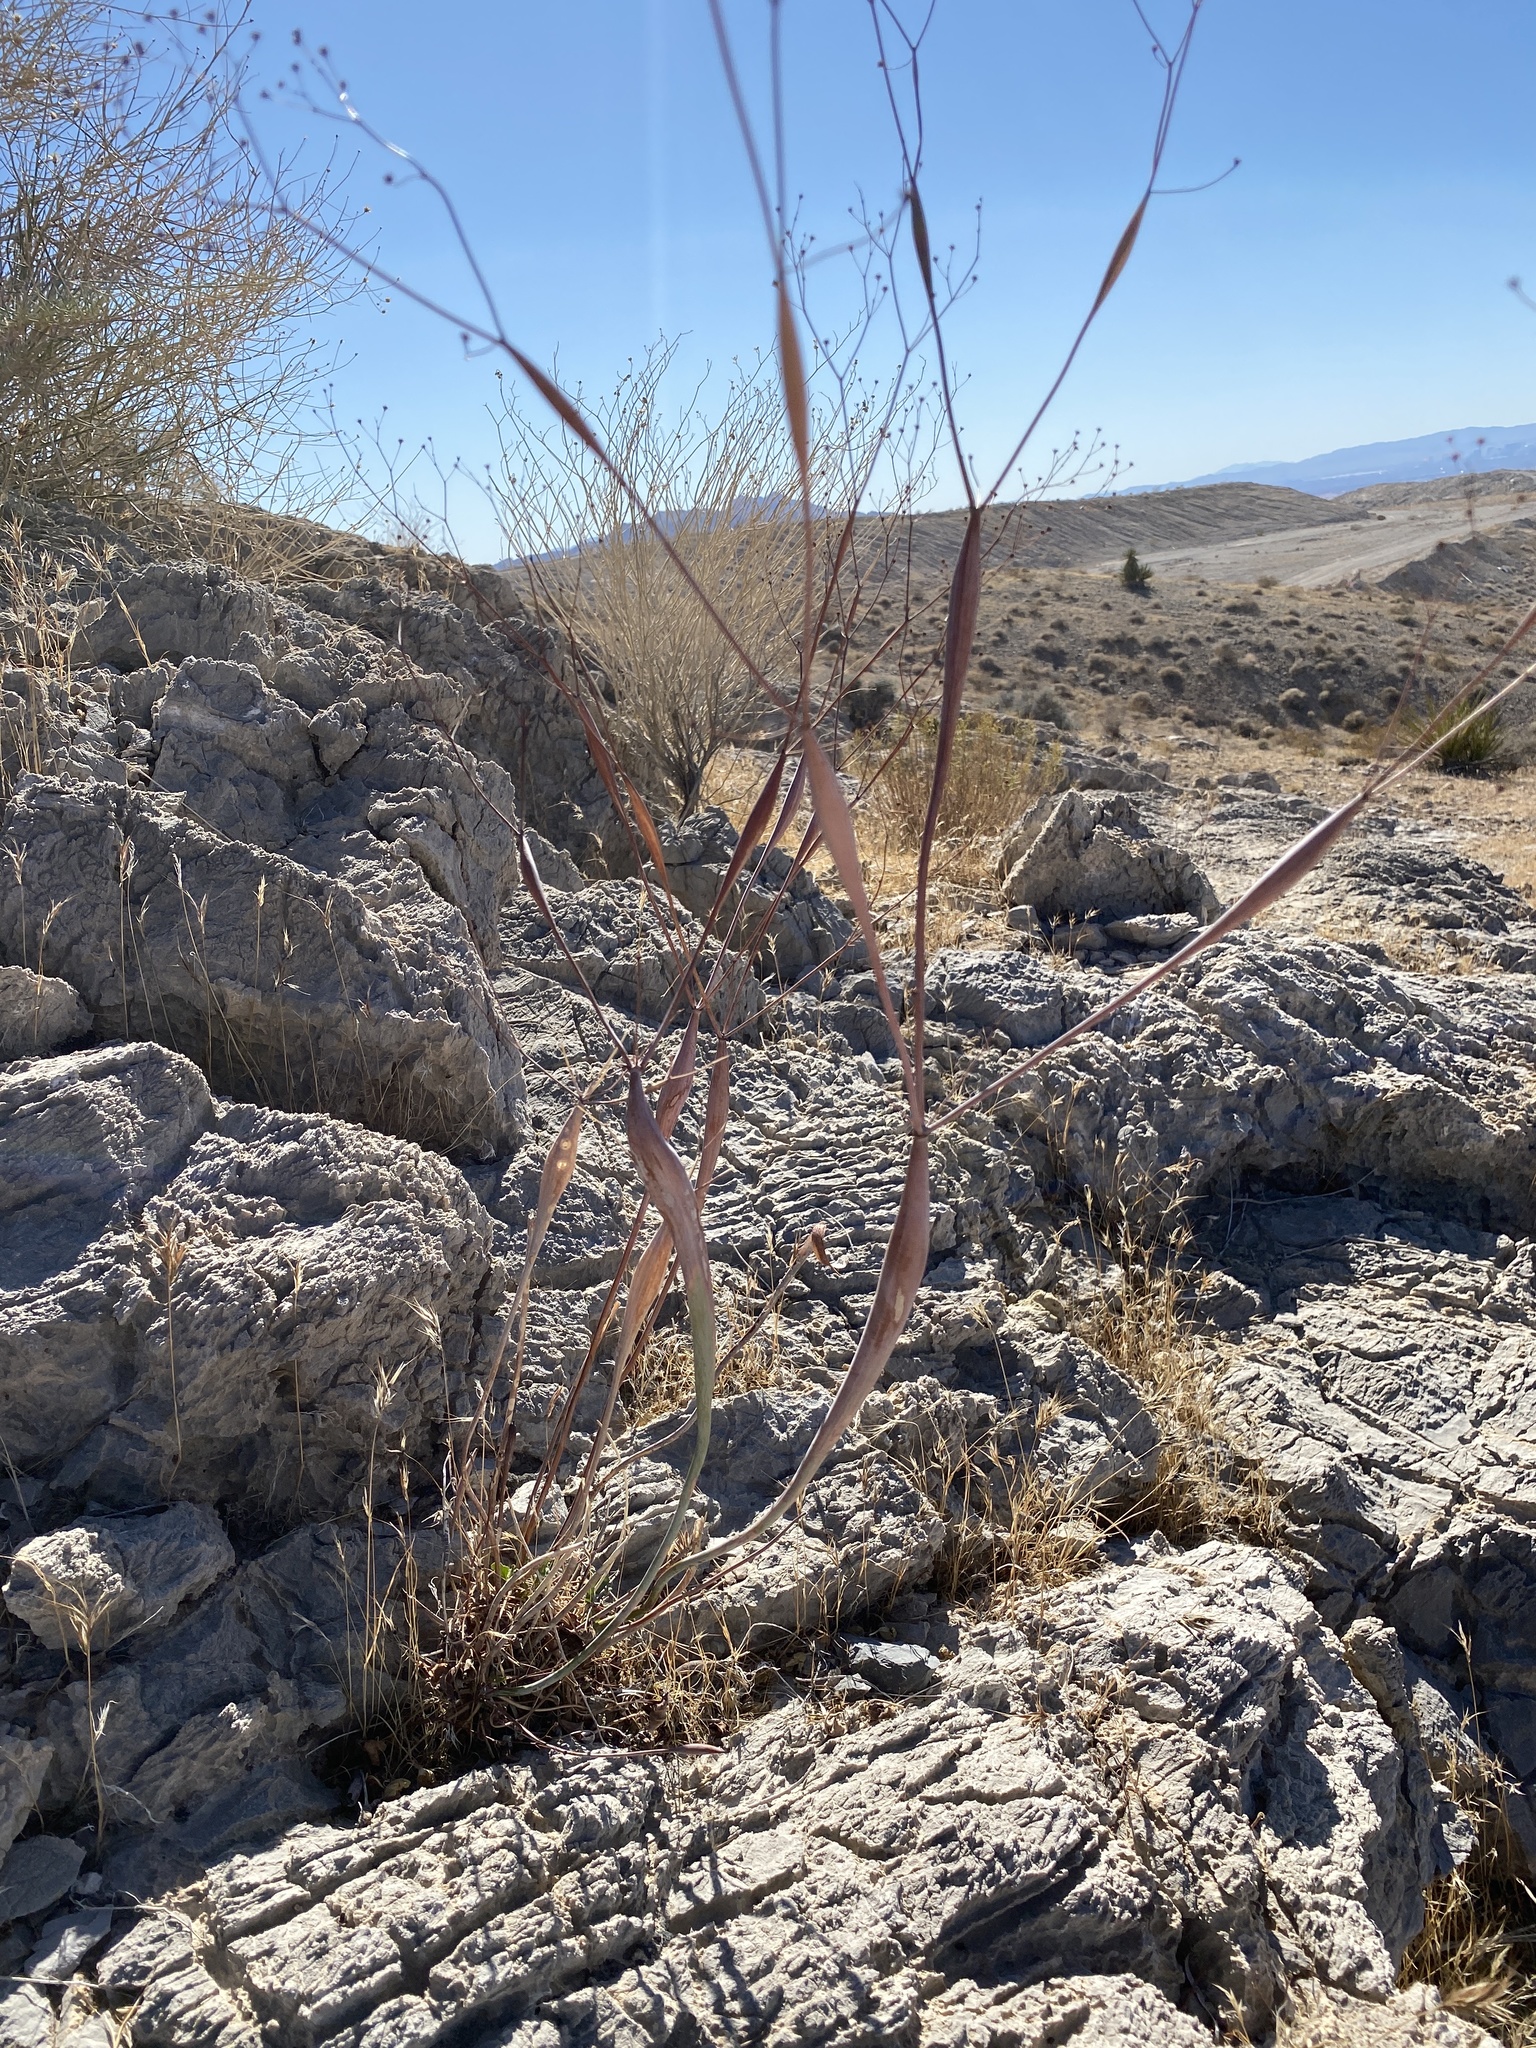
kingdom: Plantae
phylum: Tracheophyta
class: Magnoliopsida
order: Caryophyllales
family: Polygonaceae
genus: Eriogonum
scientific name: Eriogonum inflatum
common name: Desert trumpet
